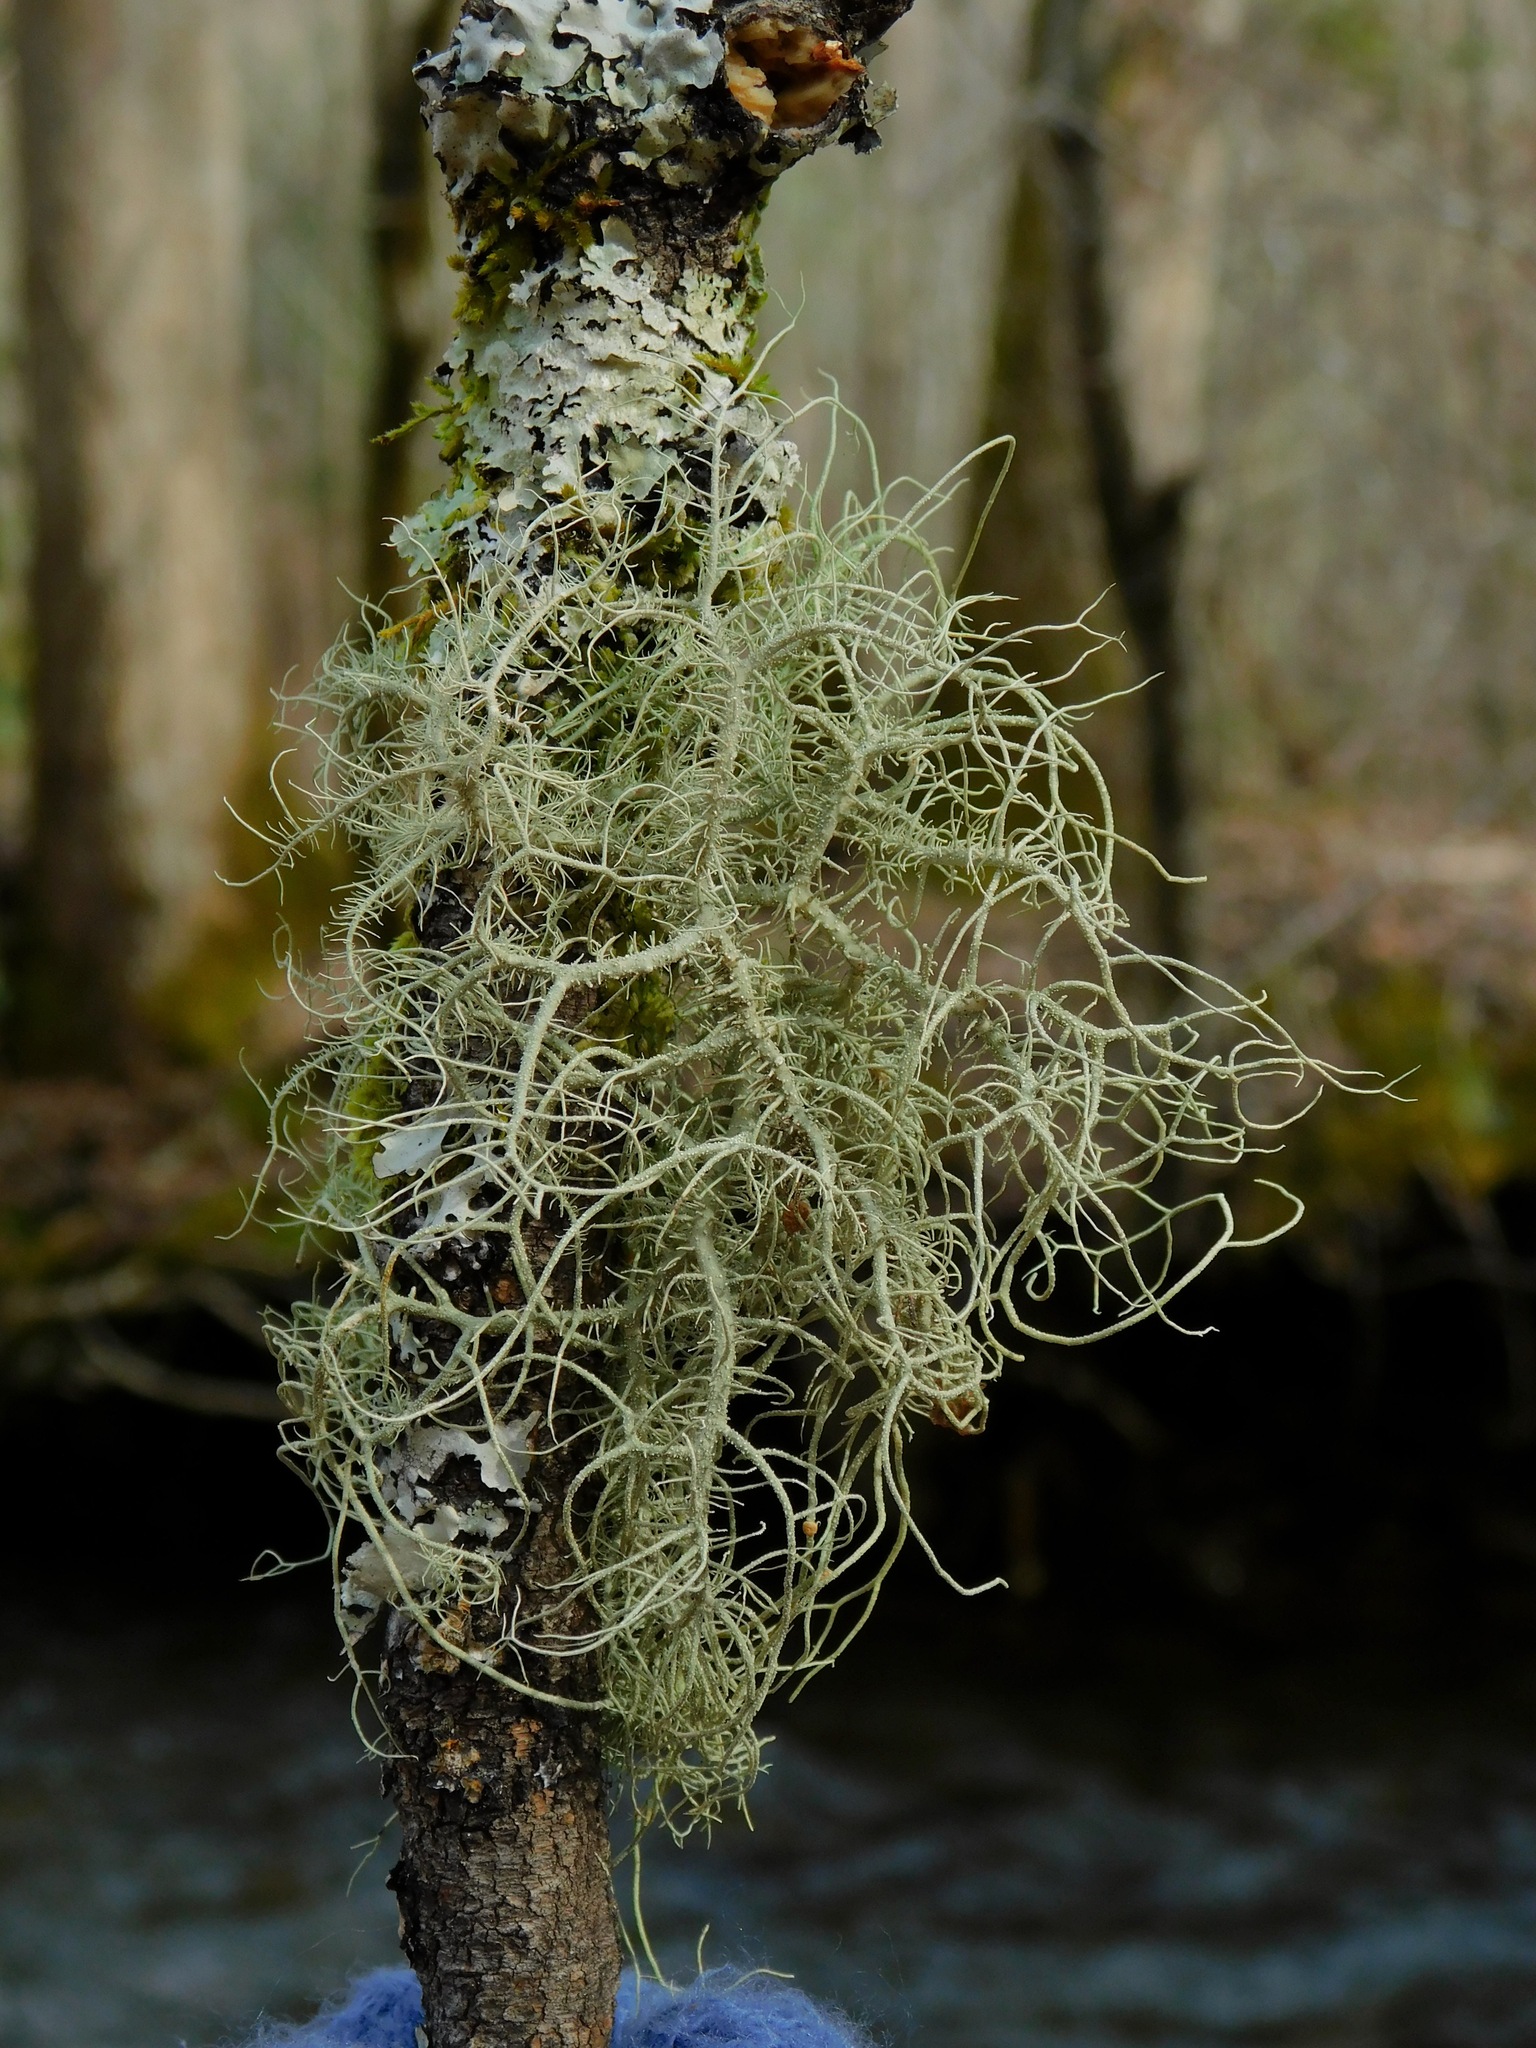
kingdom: Fungi
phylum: Ascomycota
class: Lecanoromycetes
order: Lecanorales
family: Parmeliaceae
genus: Usnea
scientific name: Usnea subscabrosa
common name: Beard lichen
